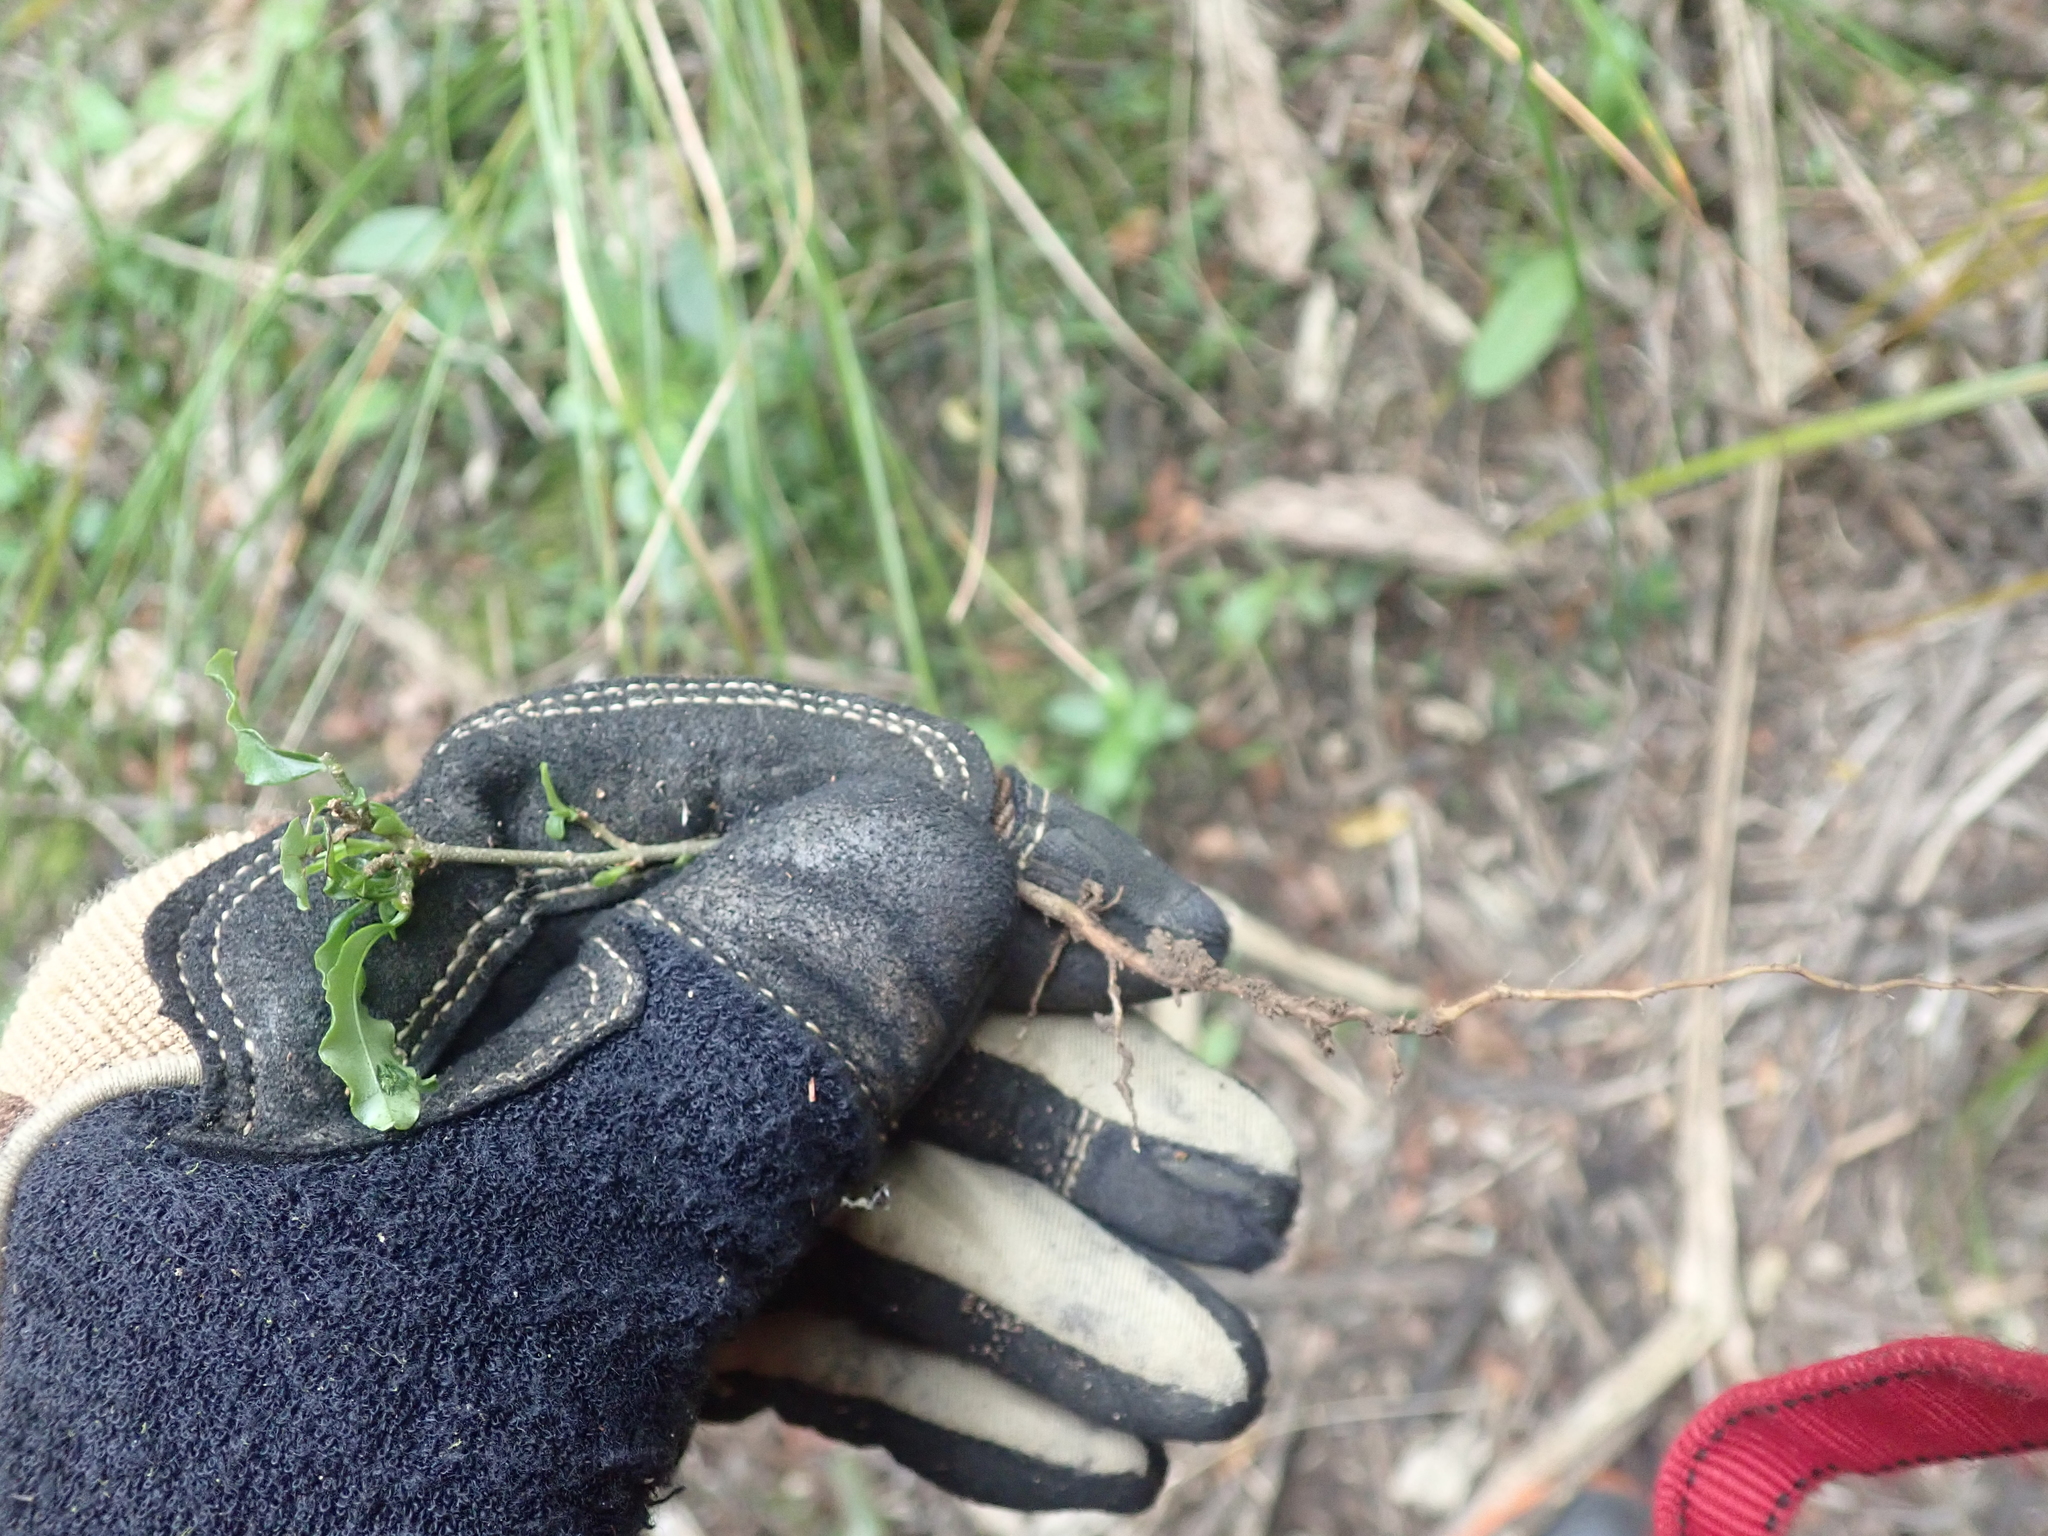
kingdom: Plantae
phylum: Tracheophyta
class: Magnoliopsida
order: Lamiales
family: Oleaceae
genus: Ligustrum
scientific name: Ligustrum sinense
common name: Chinese privet
